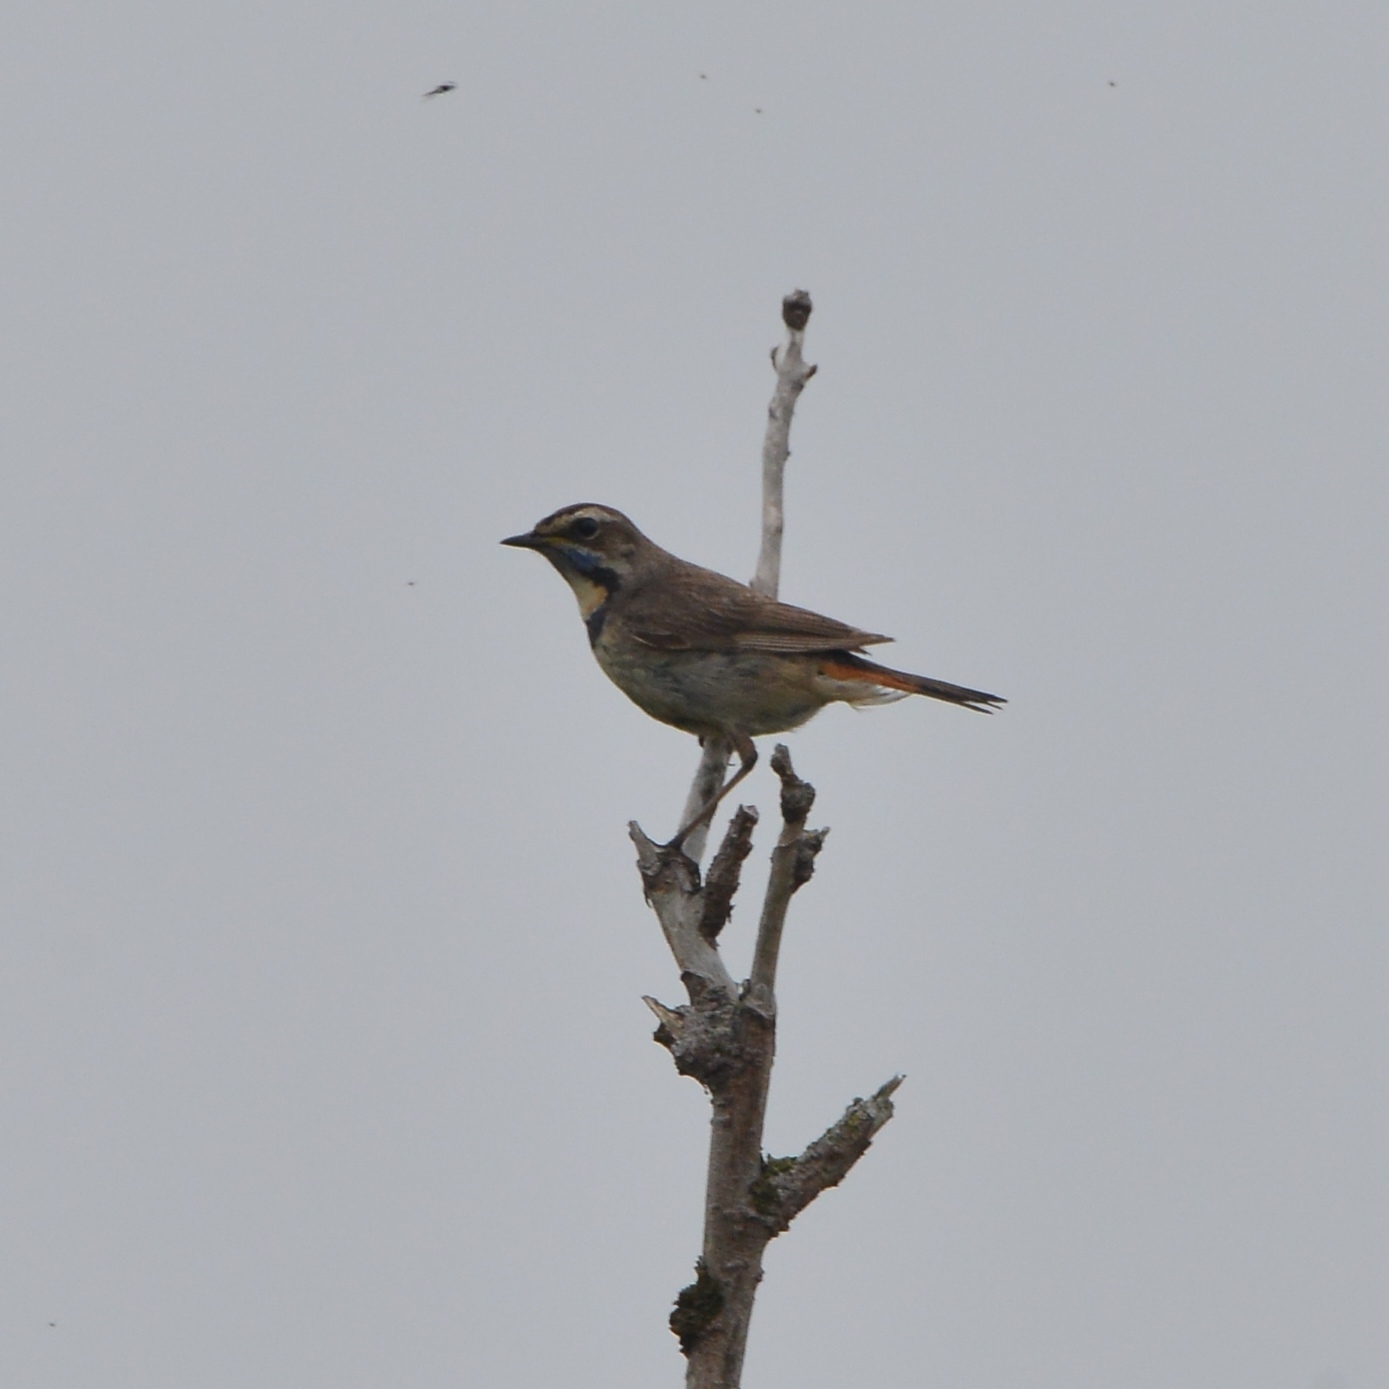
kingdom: Animalia
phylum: Chordata
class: Aves
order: Passeriformes
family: Muscicapidae
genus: Luscinia
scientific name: Luscinia svecica
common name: Bluethroat
